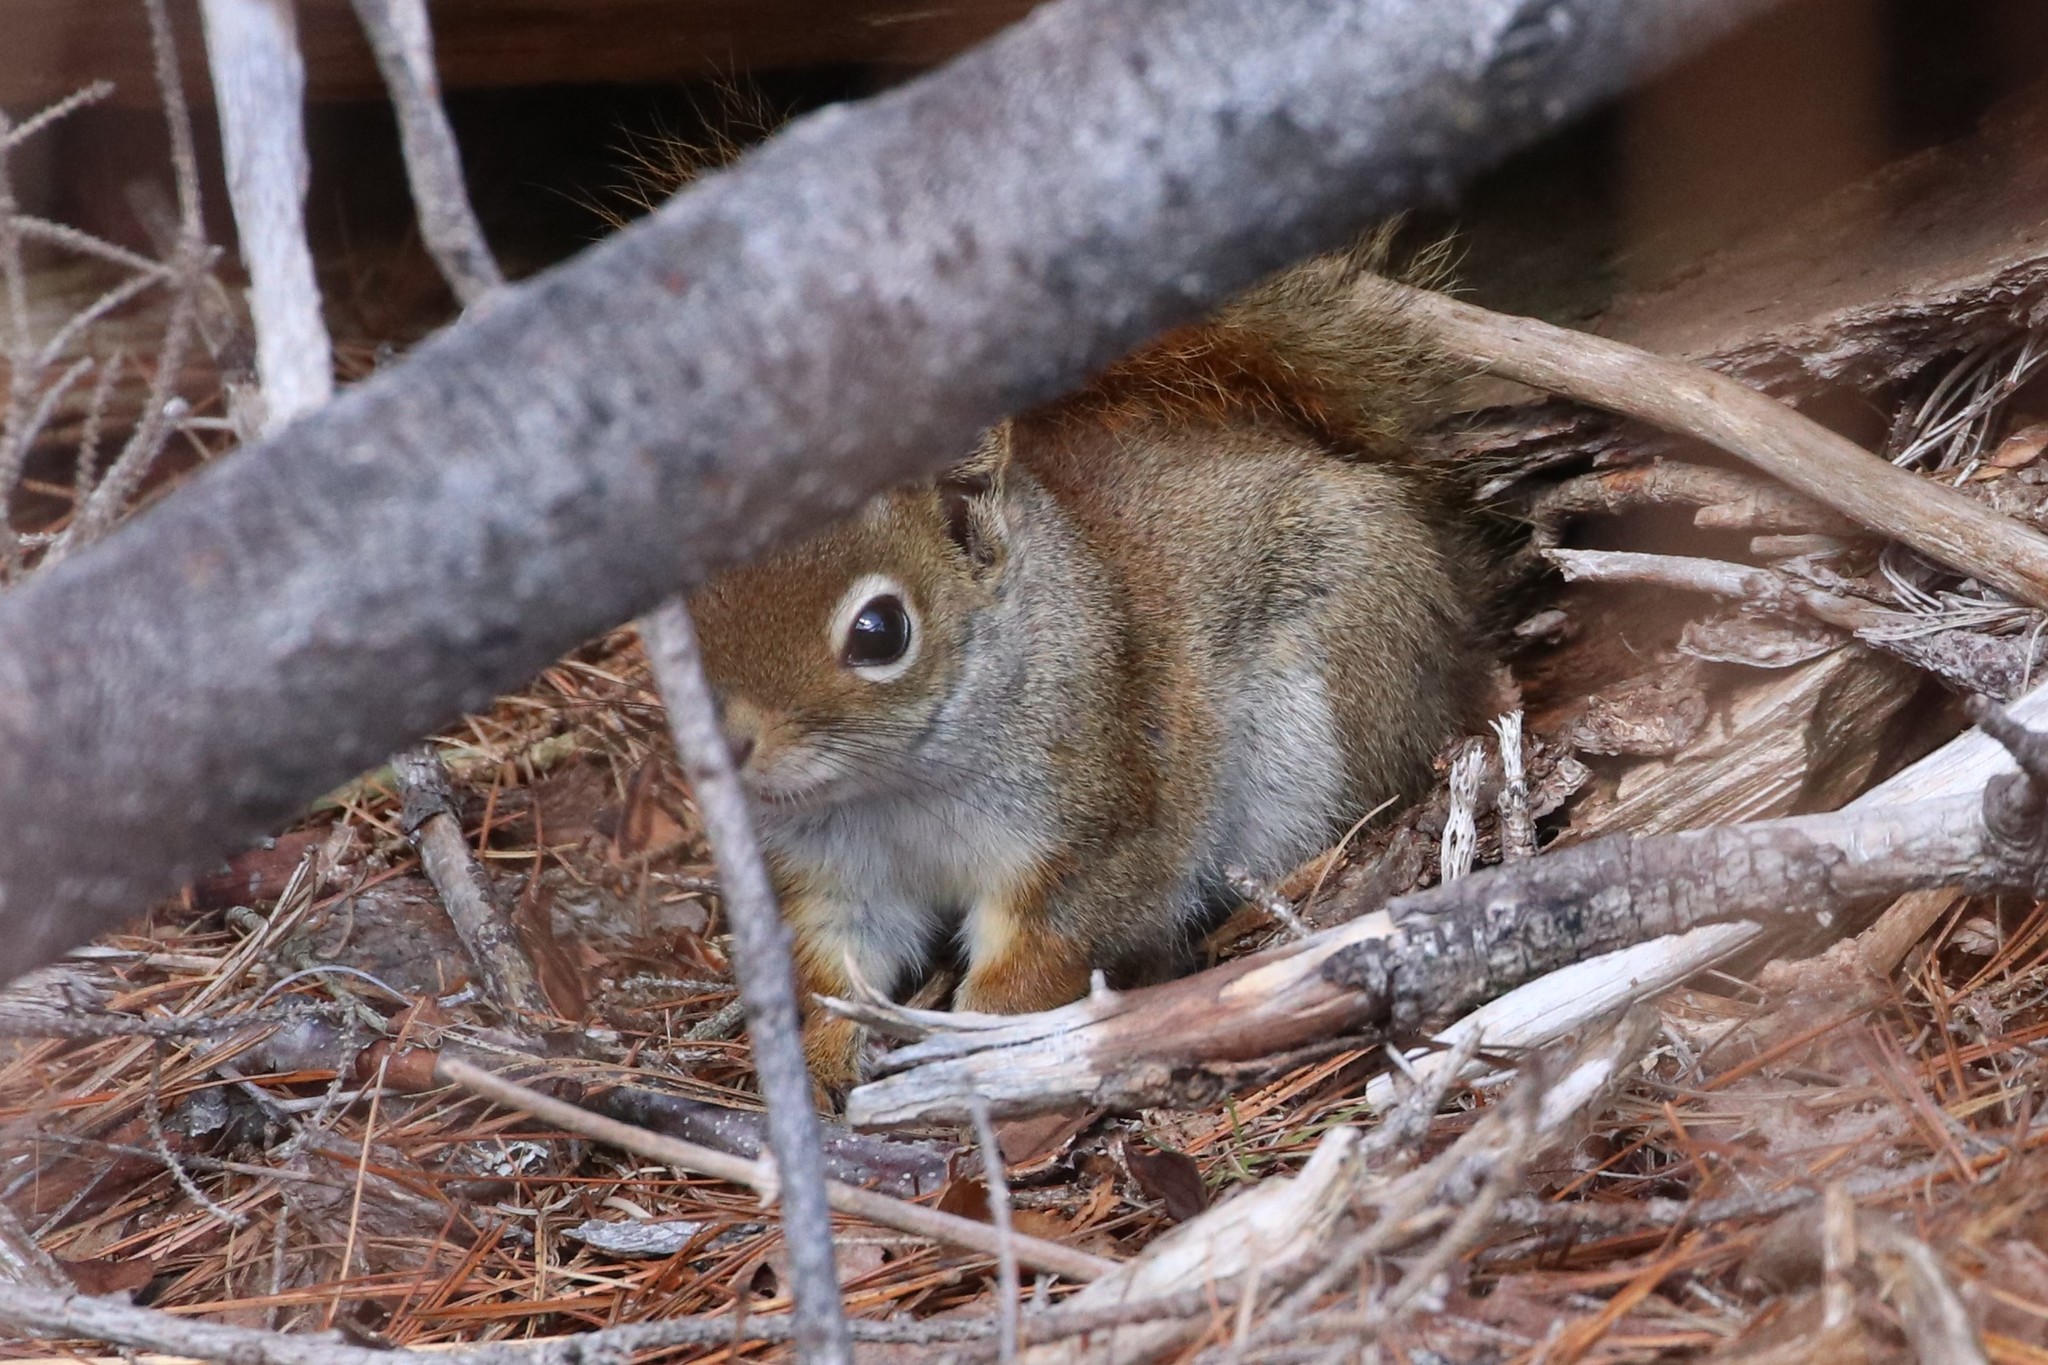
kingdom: Animalia
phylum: Chordata
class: Mammalia
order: Rodentia
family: Sciuridae
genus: Tamiasciurus
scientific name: Tamiasciurus hudsonicus
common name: Red squirrel
